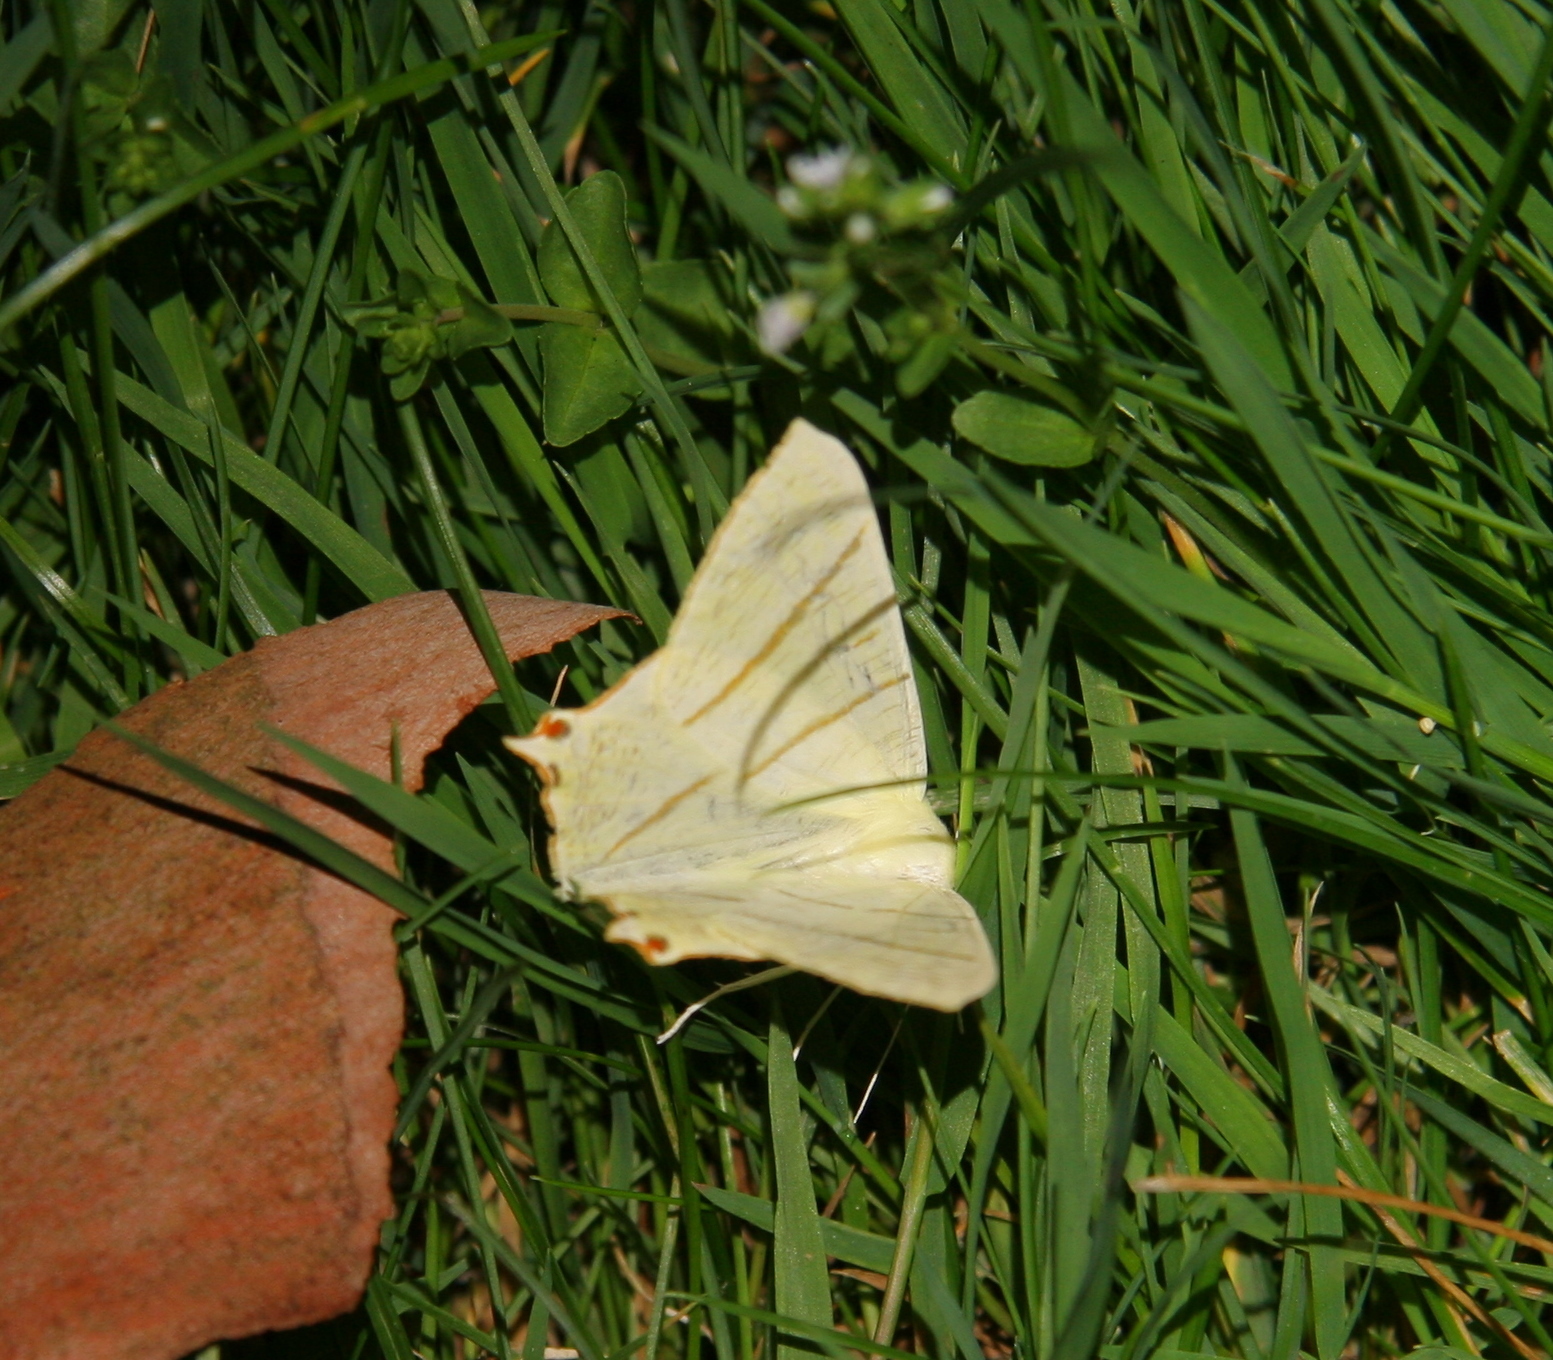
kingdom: Animalia
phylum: Arthropoda
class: Insecta
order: Lepidoptera
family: Geometridae
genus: Ourapteryx
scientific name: Ourapteryx sambucaria
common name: Swallow-tailed moth
